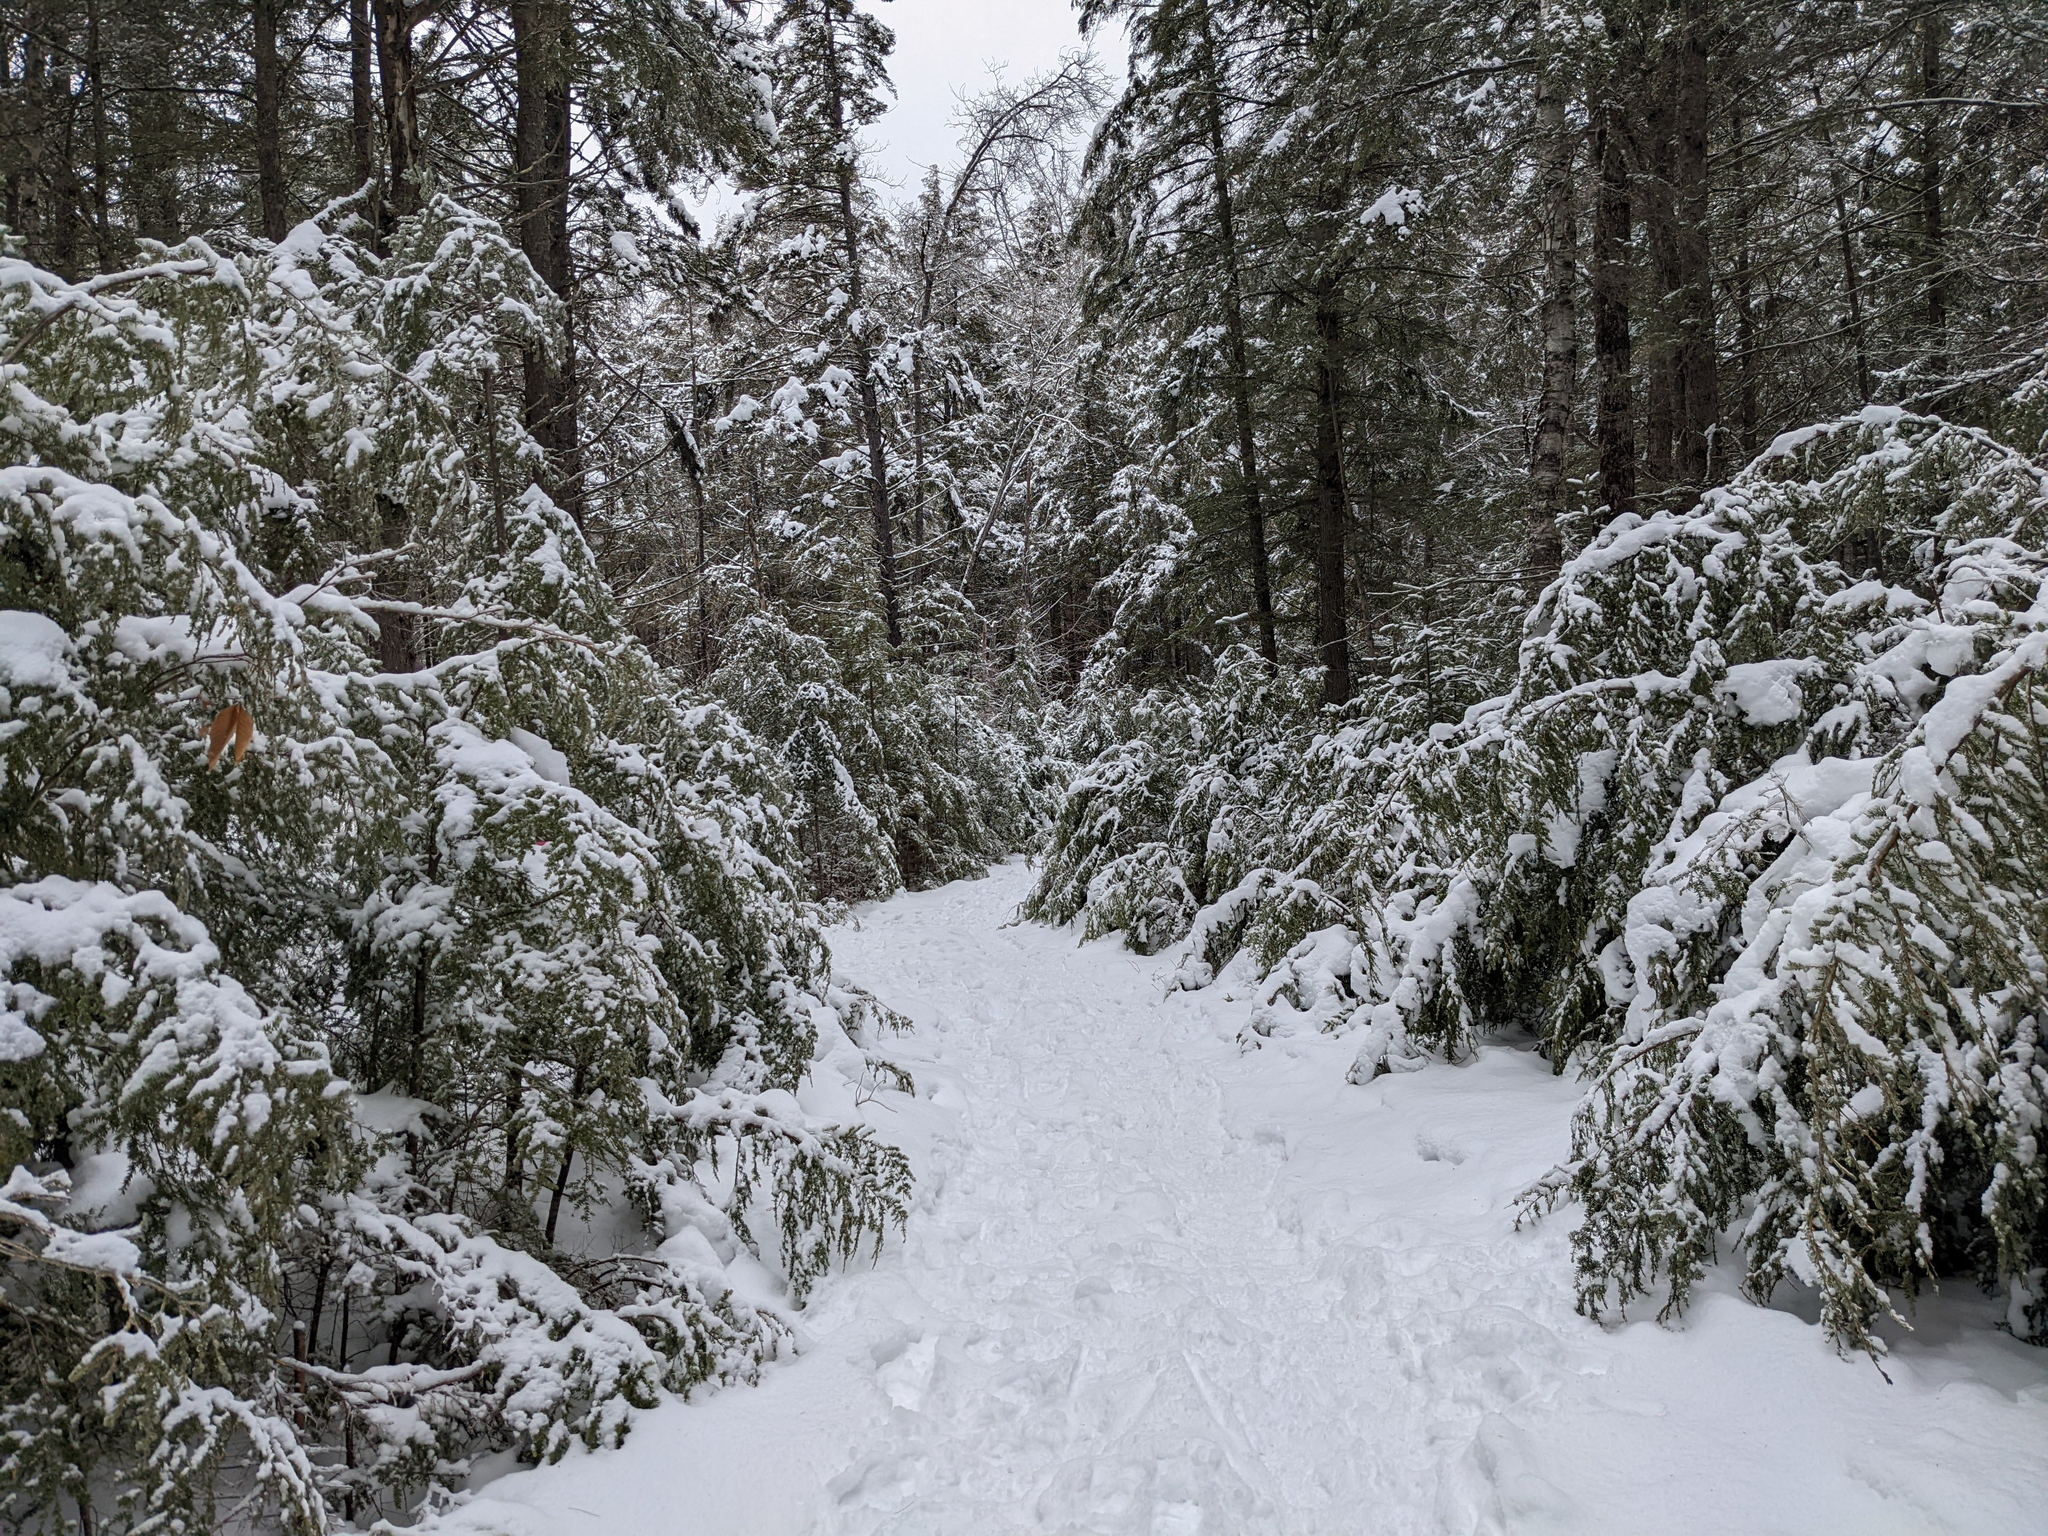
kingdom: Plantae
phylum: Tracheophyta
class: Pinopsida
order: Pinales
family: Pinaceae
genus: Tsuga
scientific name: Tsuga canadensis
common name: Eastern hemlock
